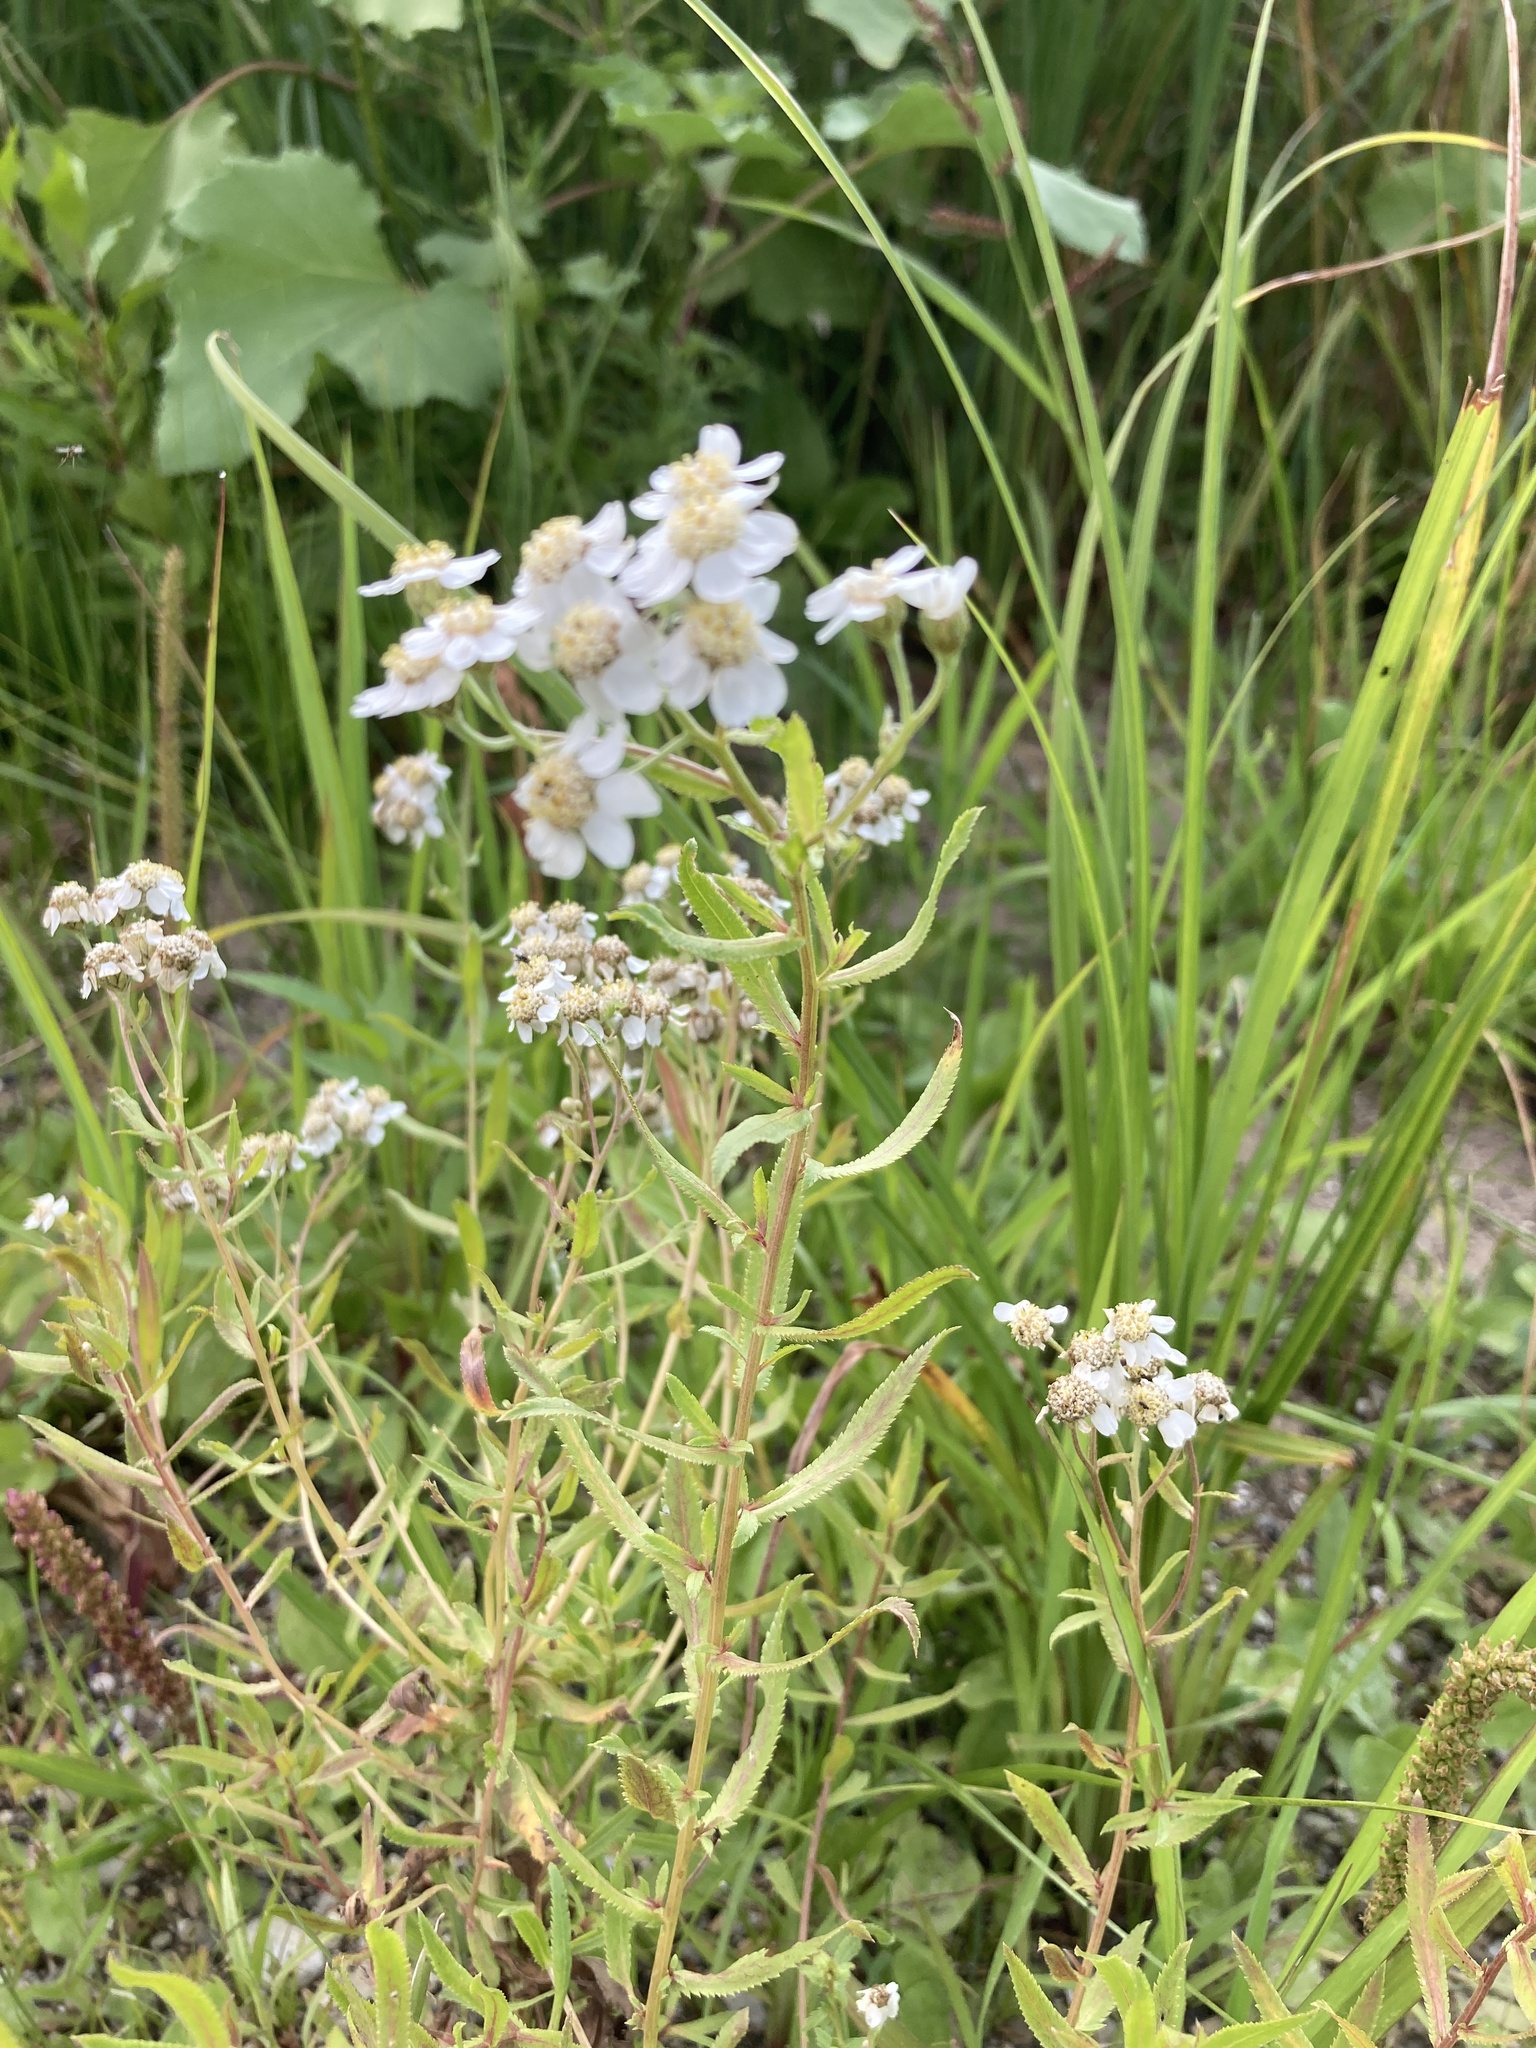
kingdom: Plantae
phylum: Tracheophyta
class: Magnoliopsida
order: Asterales
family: Asteraceae
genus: Achillea
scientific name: Achillea salicifolia
